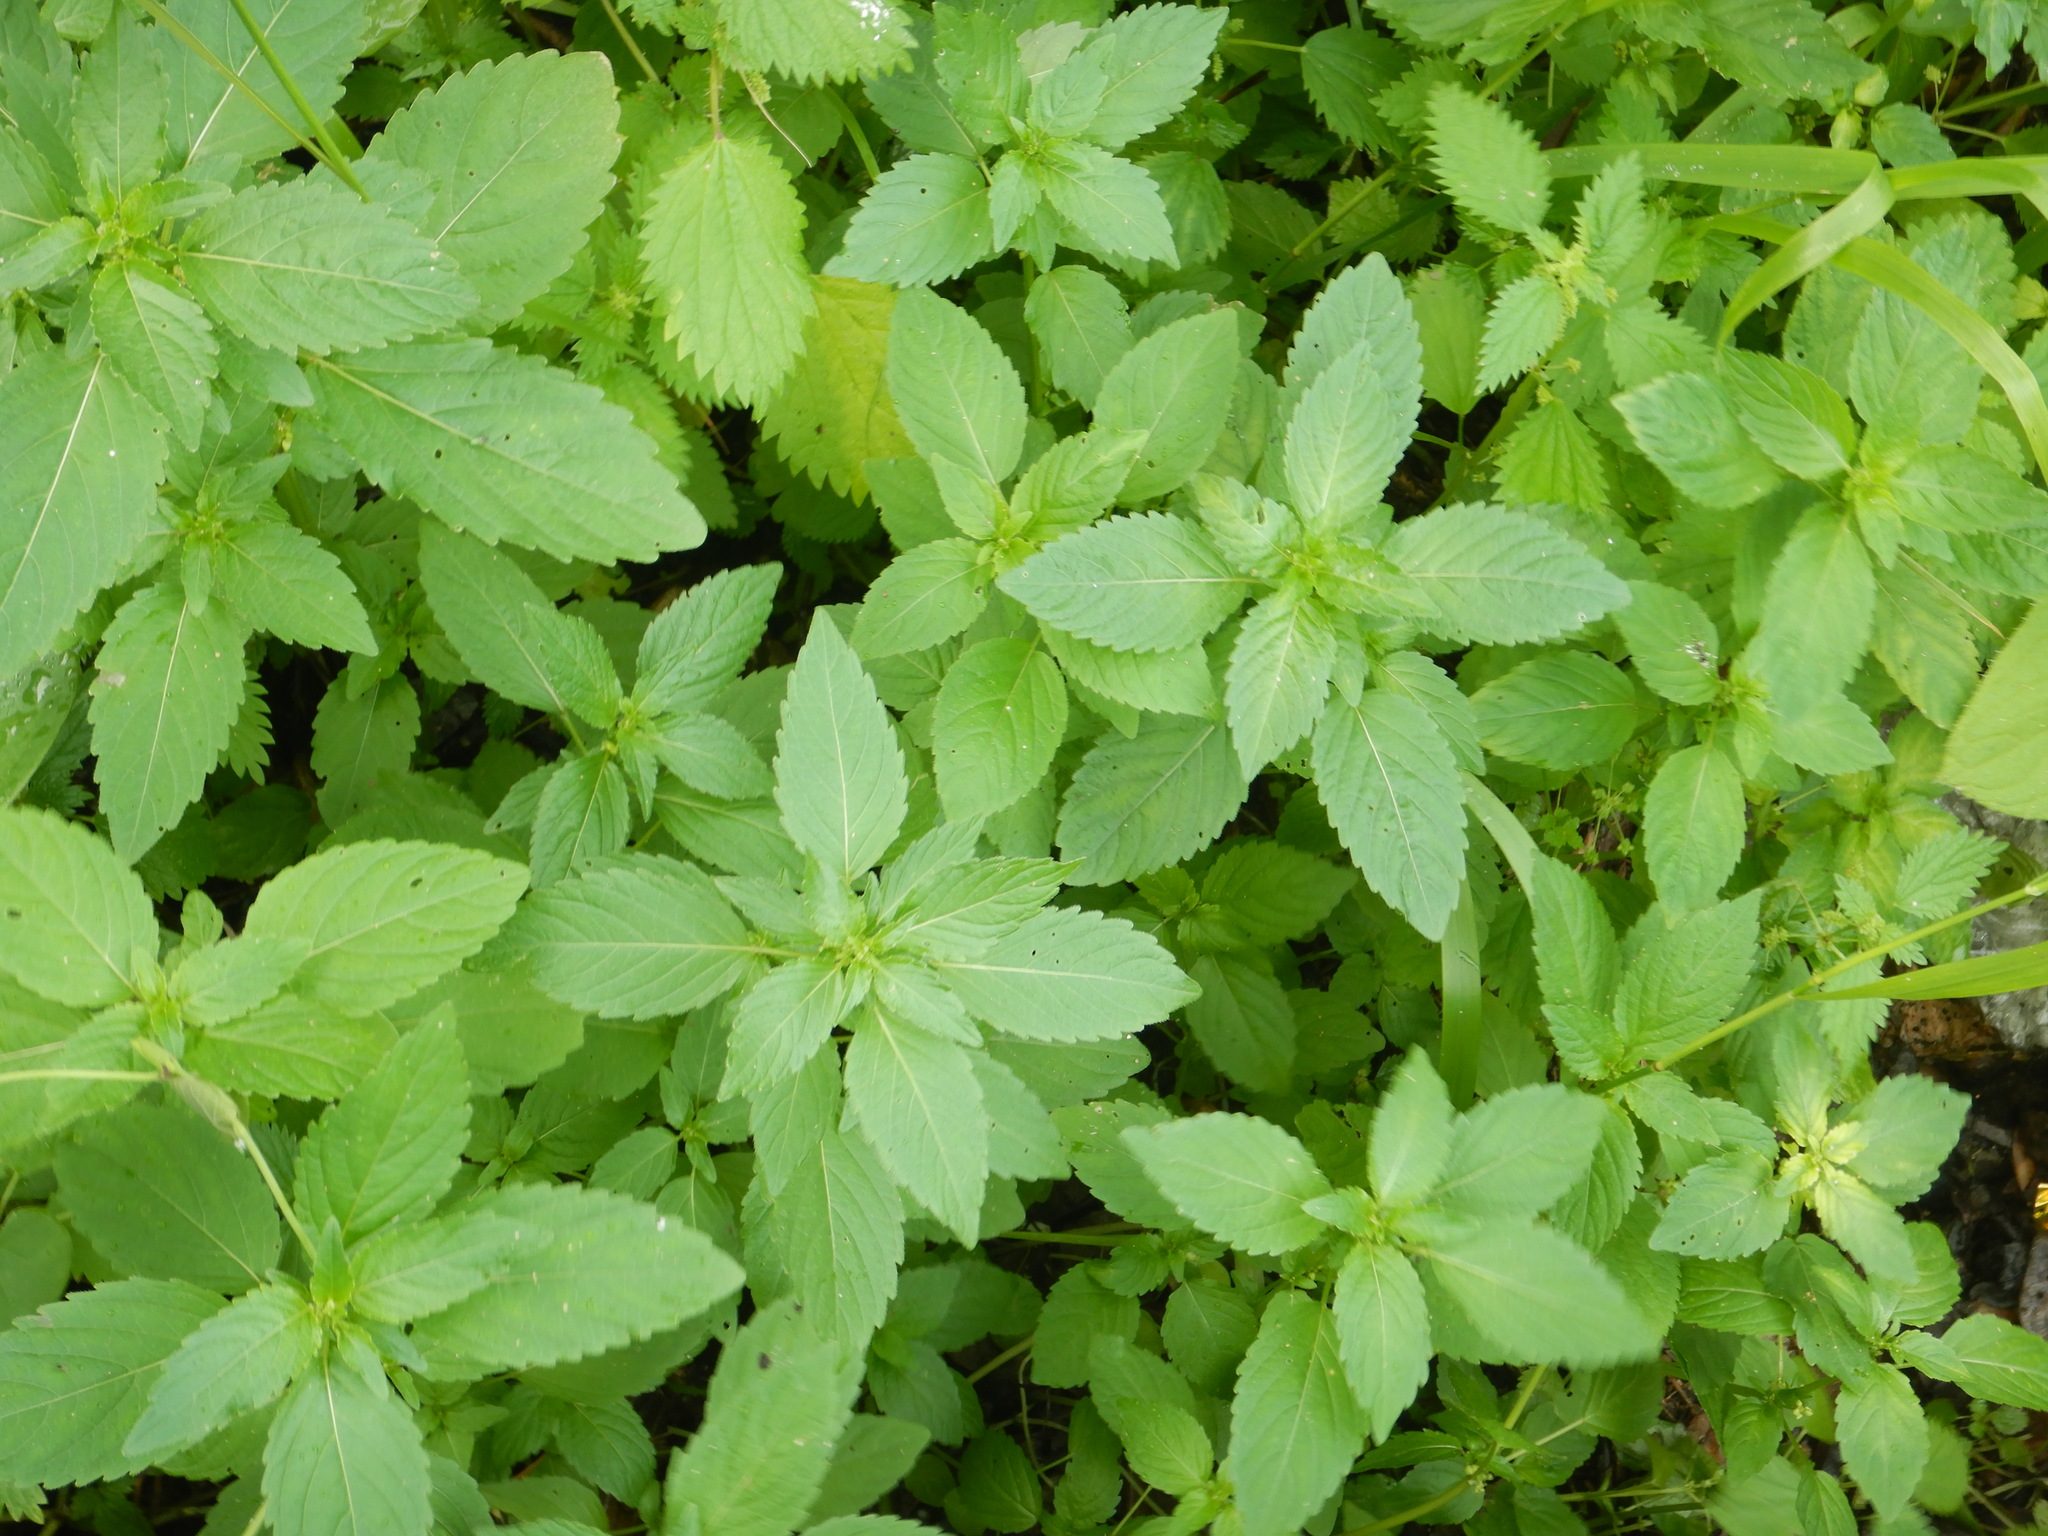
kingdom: Plantae
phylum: Tracheophyta
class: Magnoliopsida
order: Malpighiales
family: Euphorbiaceae
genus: Mercurialis
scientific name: Mercurialis annua
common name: Annual mercury
